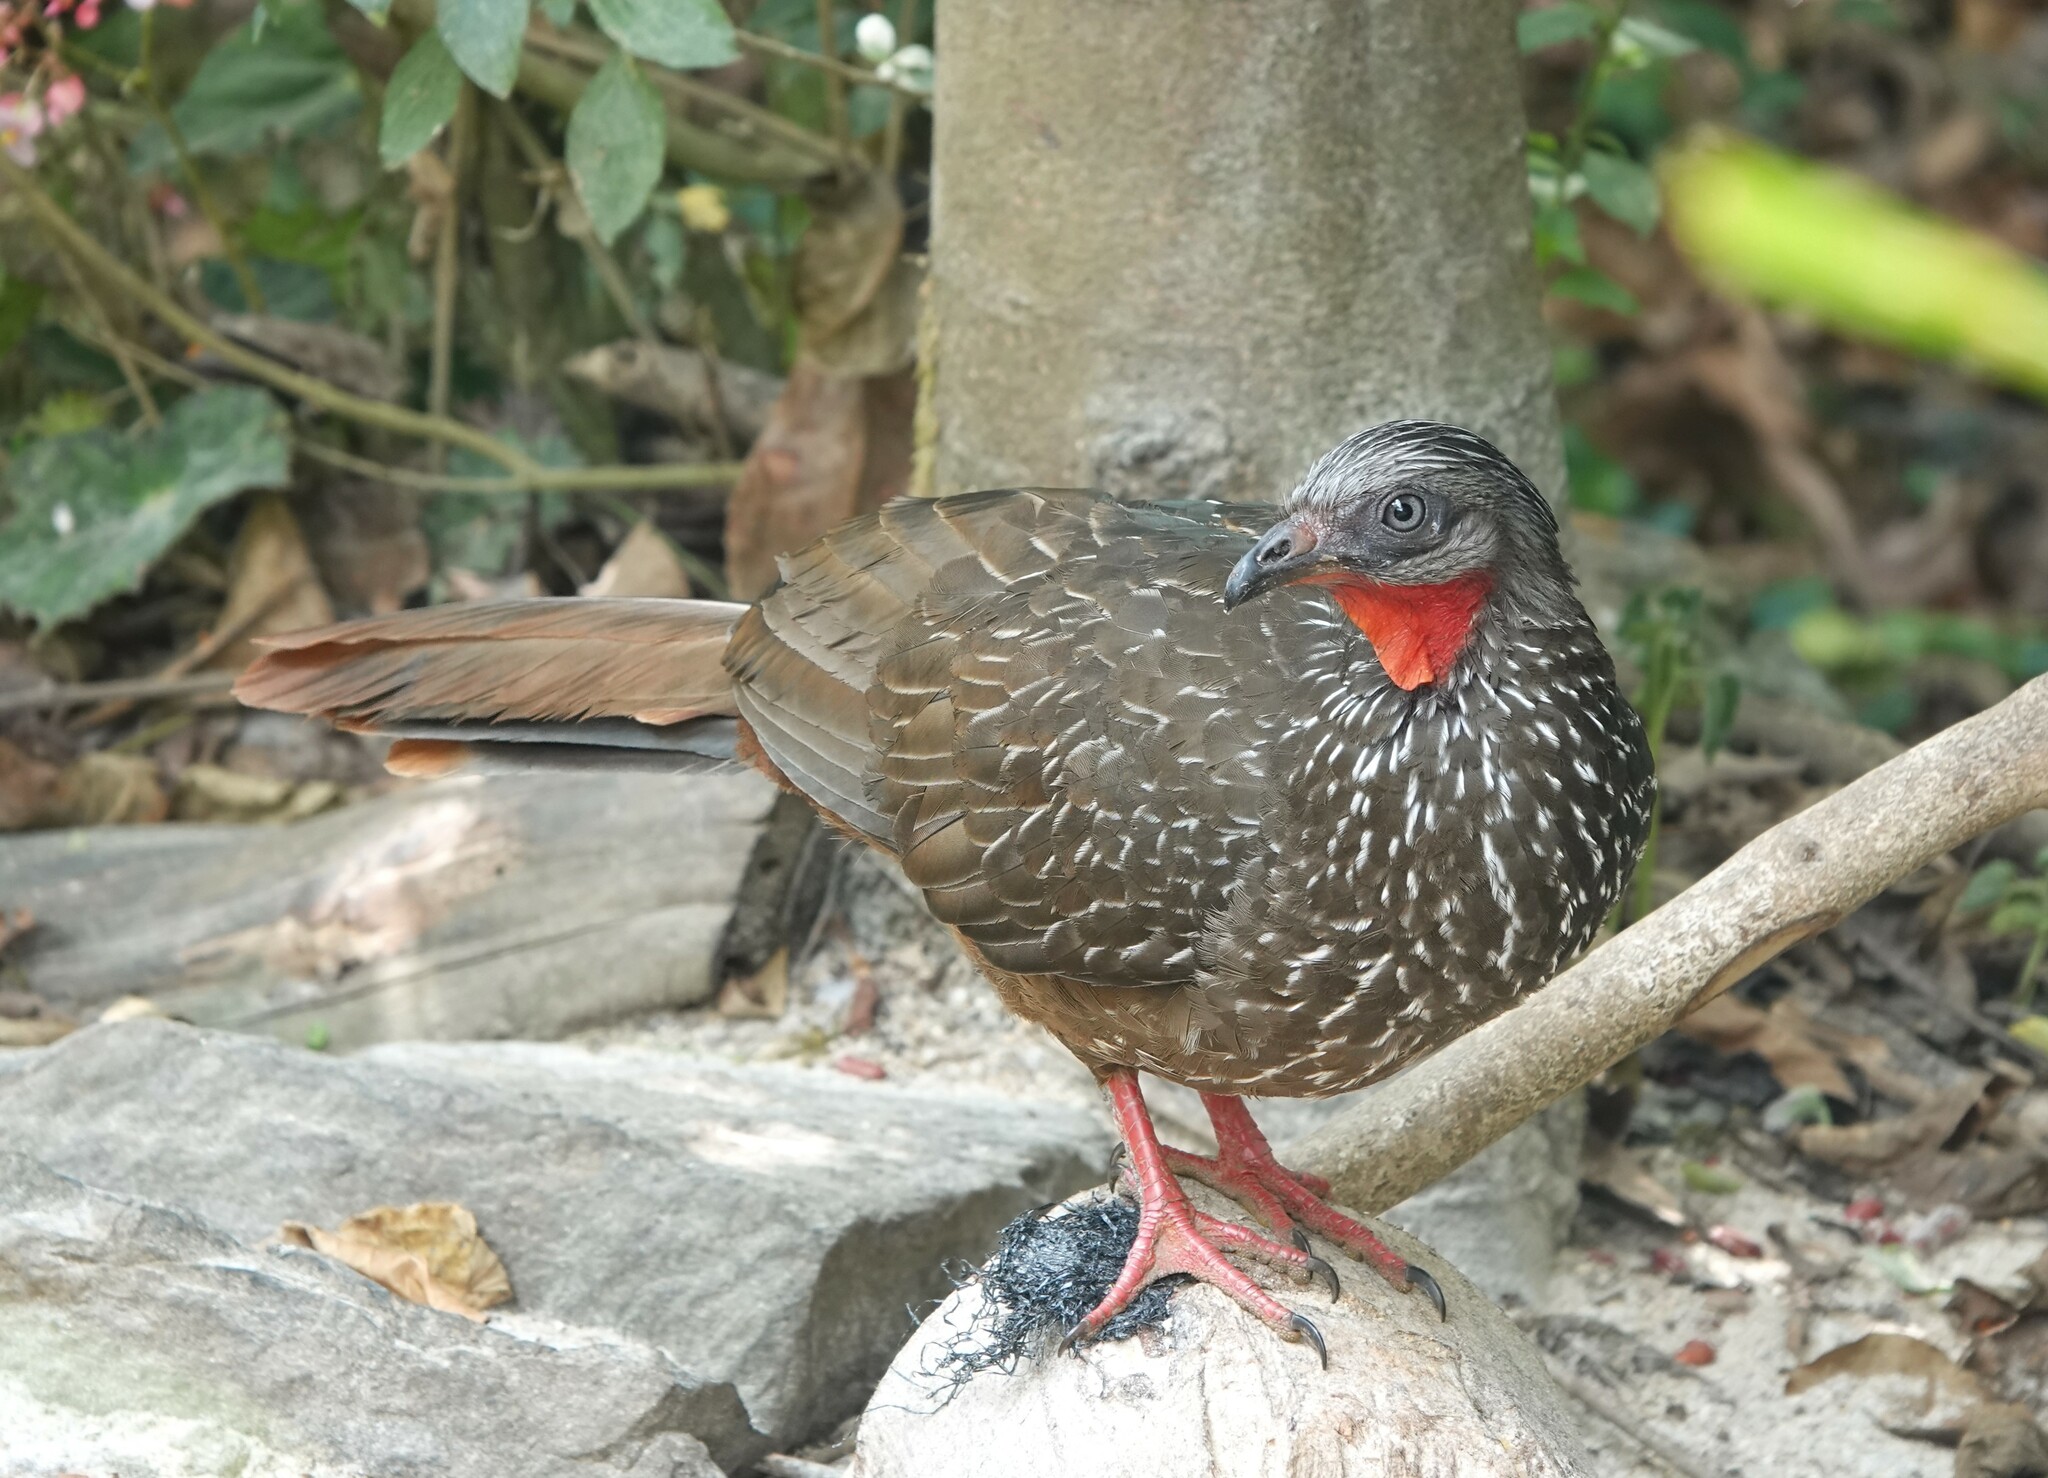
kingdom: Animalia
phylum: Chordata
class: Aves
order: Galliformes
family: Cracidae
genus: Penelope
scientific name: Penelope argyrotis
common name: Band-tailed guan
